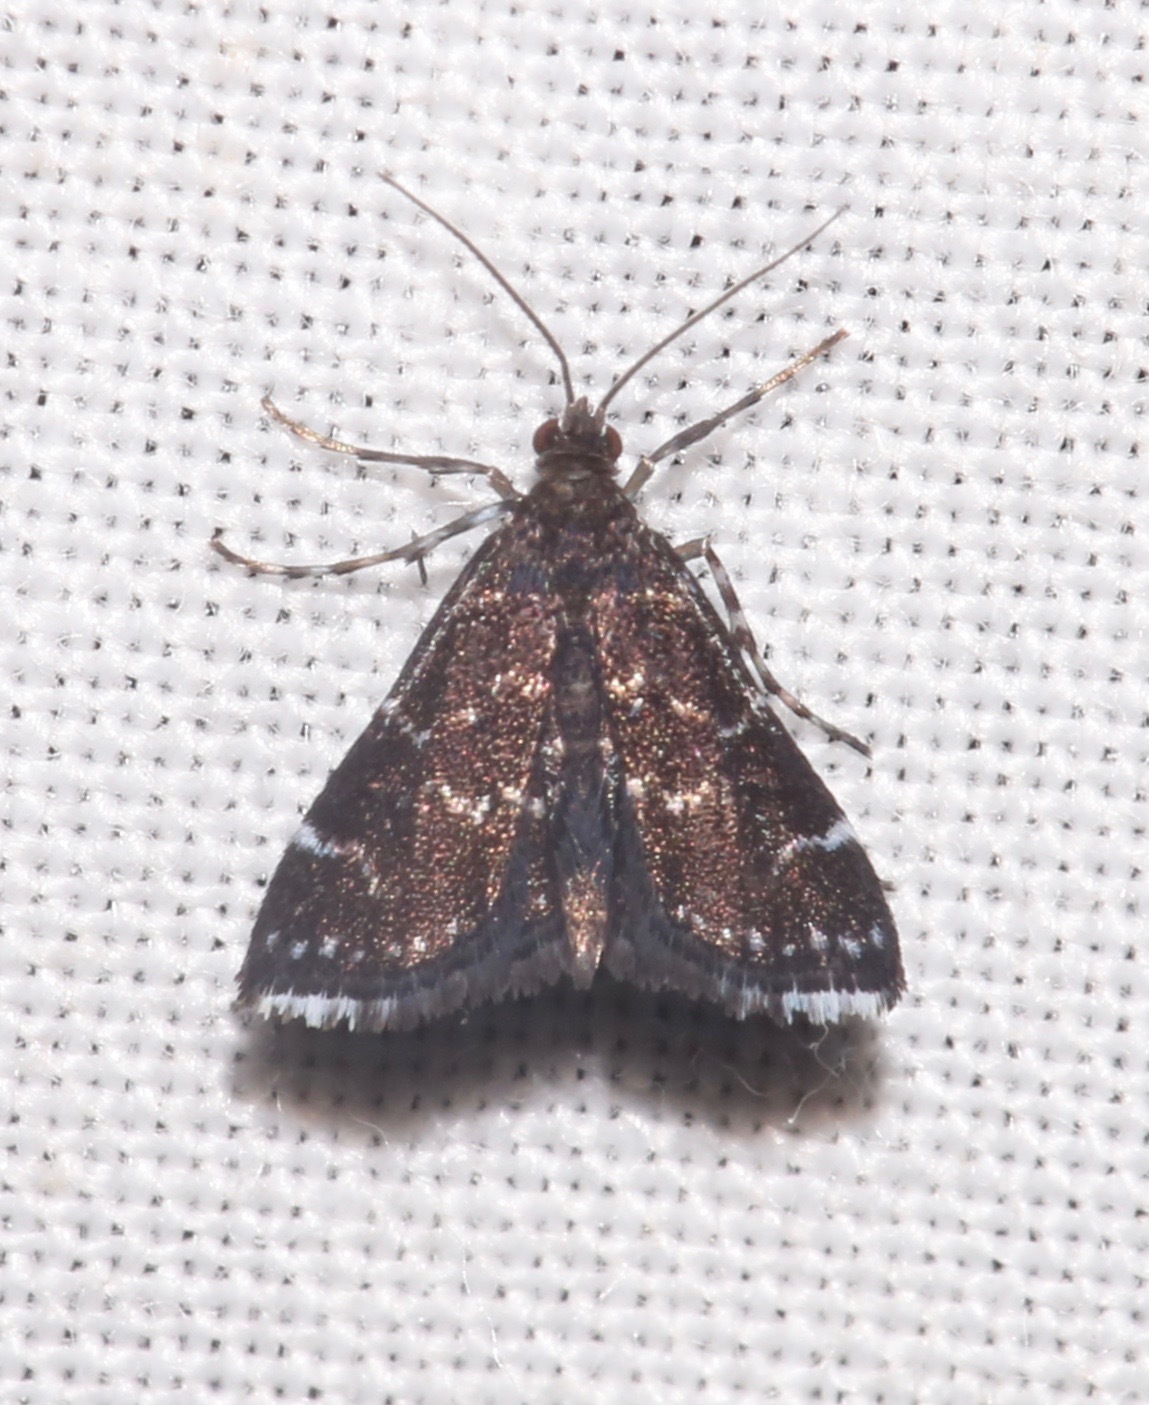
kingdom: Animalia
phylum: Arthropoda
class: Insecta
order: Lepidoptera
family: Crambidae
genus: Nymphuliella
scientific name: Nymphuliella daeckealis
